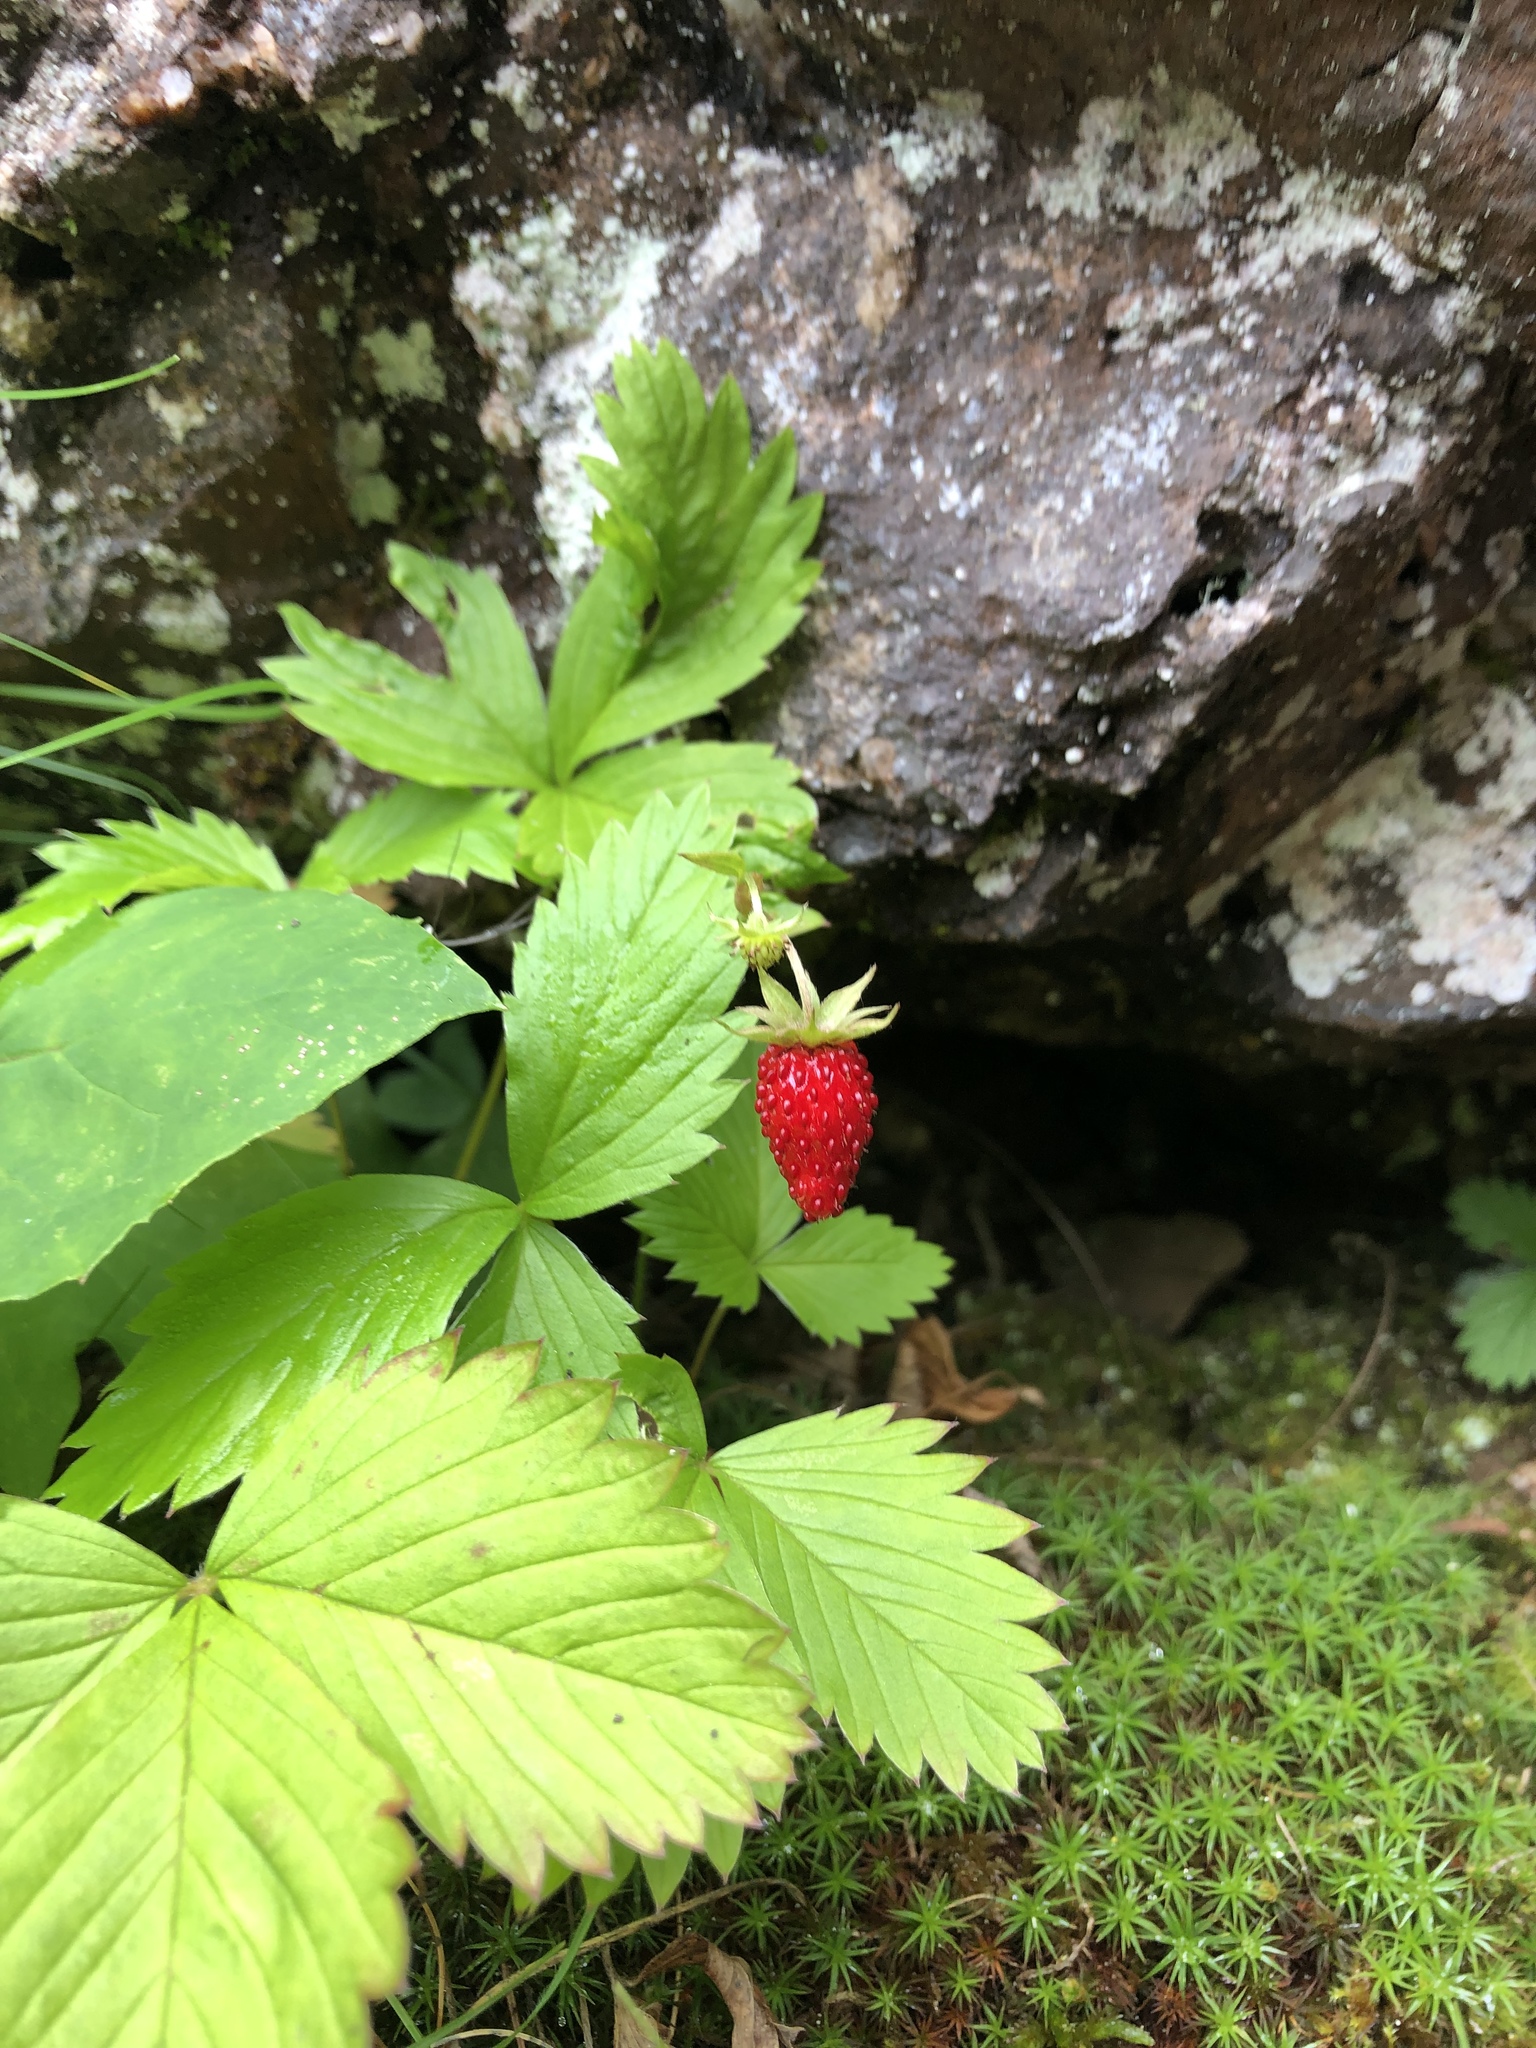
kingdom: Plantae
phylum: Tracheophyta
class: Magnoliopsida
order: Rosales
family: Rosaceae
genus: Fragaria
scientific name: Fragaria vesca
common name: Wild strawberry
